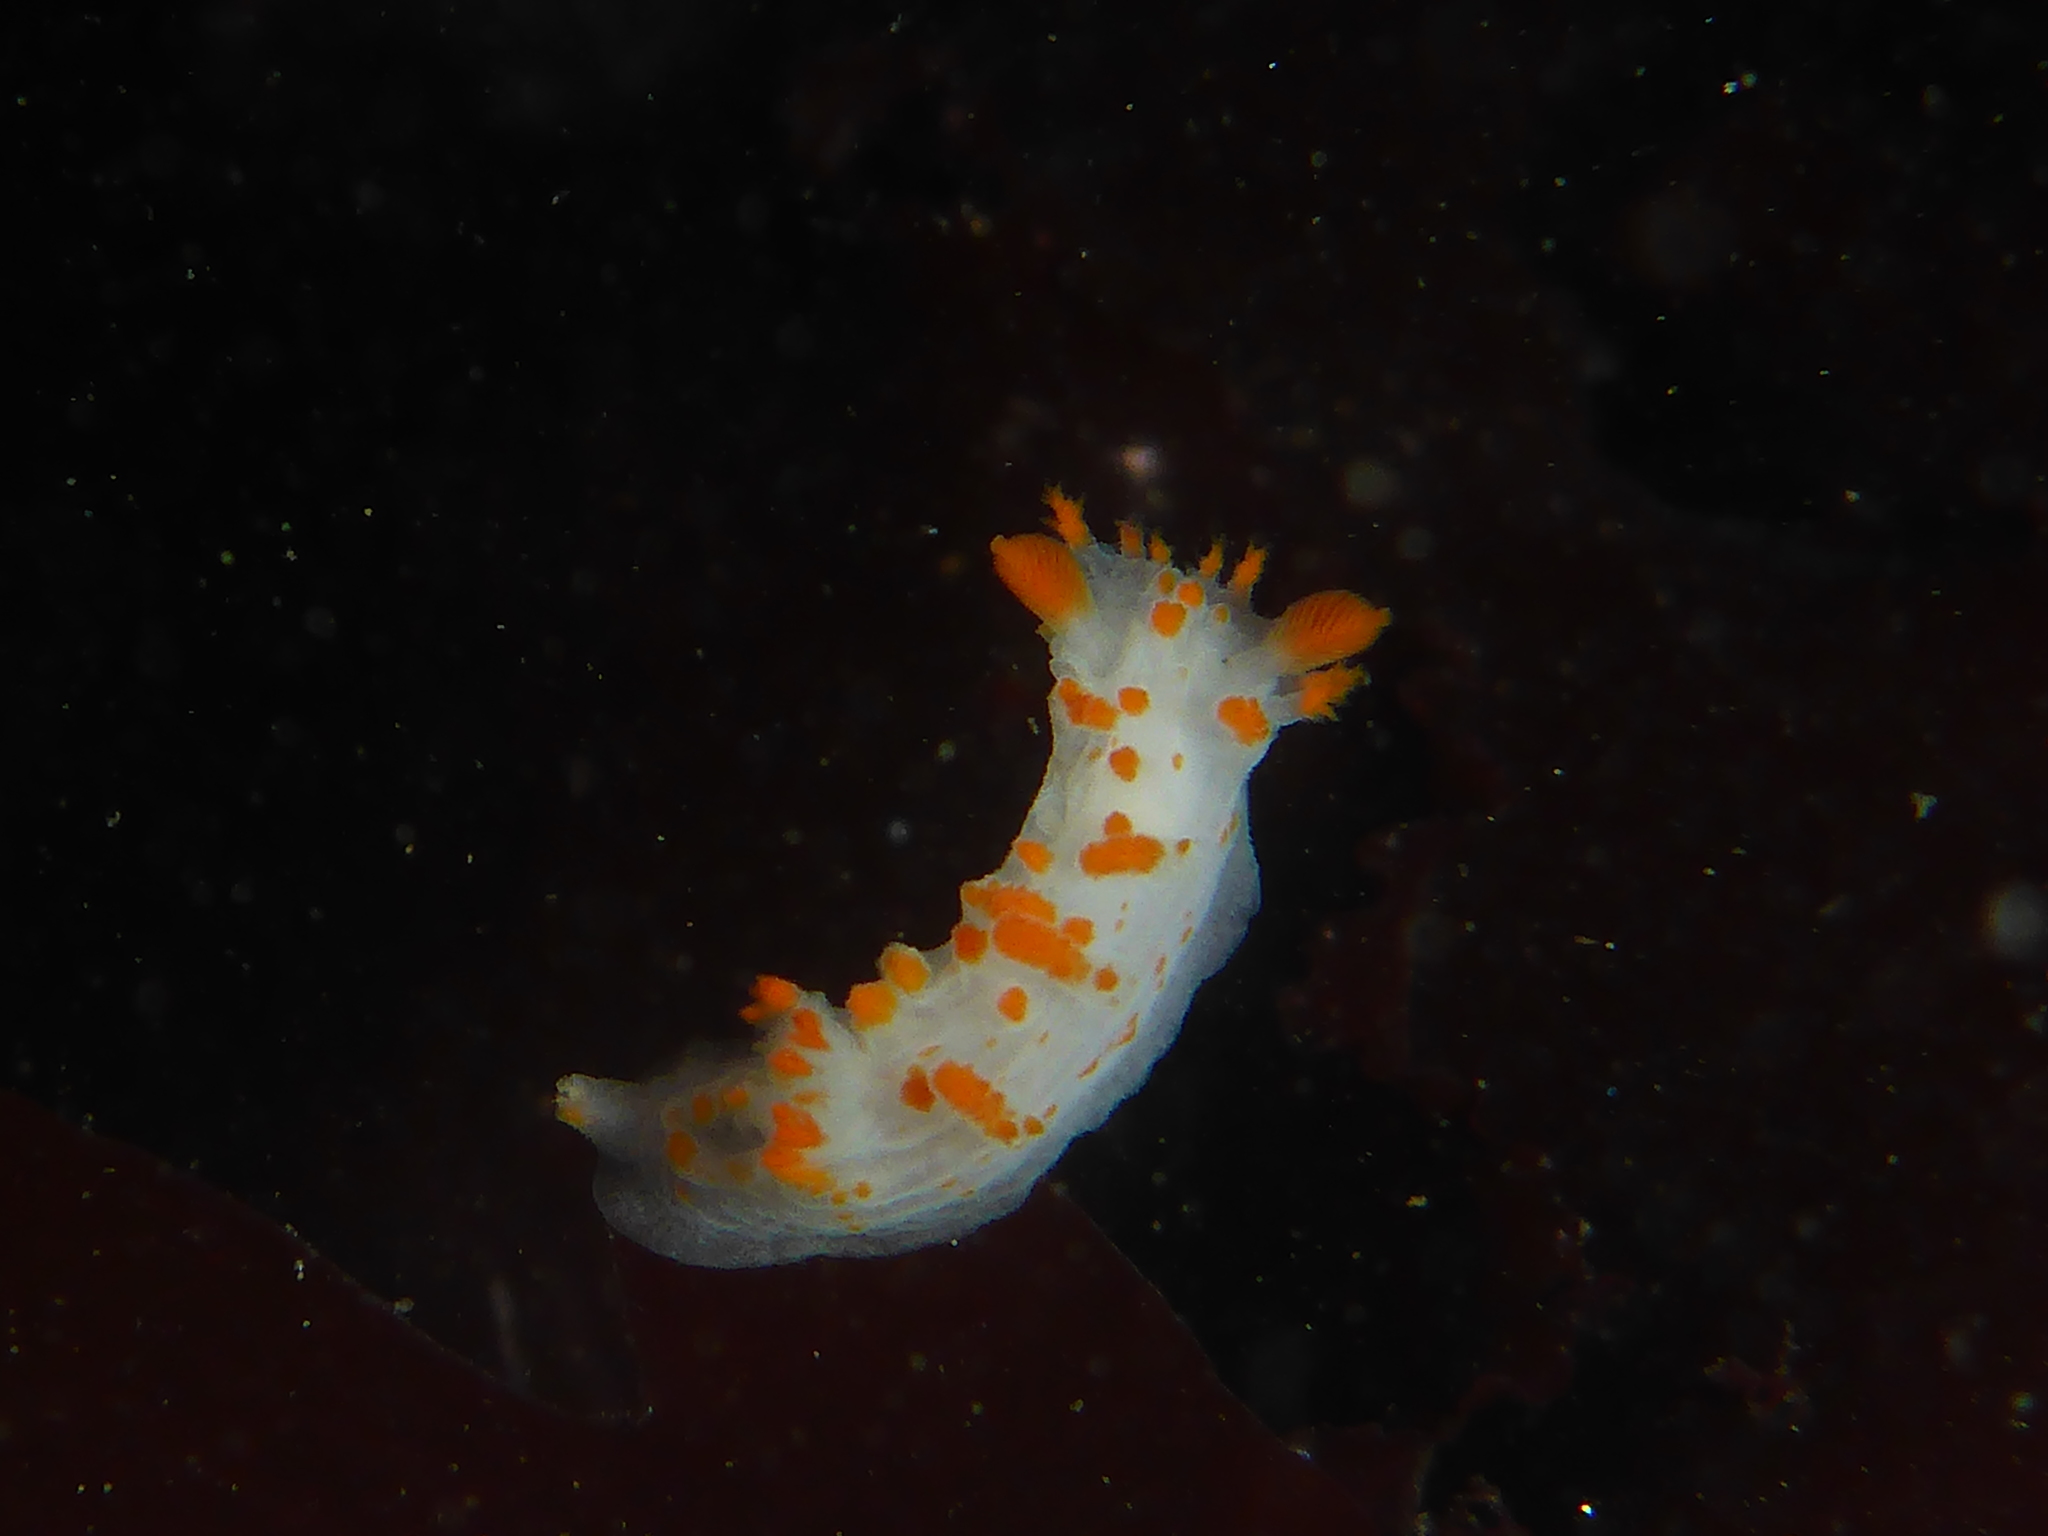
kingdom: Animalia
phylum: Mollusca
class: Gastropoda
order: Nudibranchia
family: Polyceridae
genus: Triopha
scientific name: Triopha catalinae
